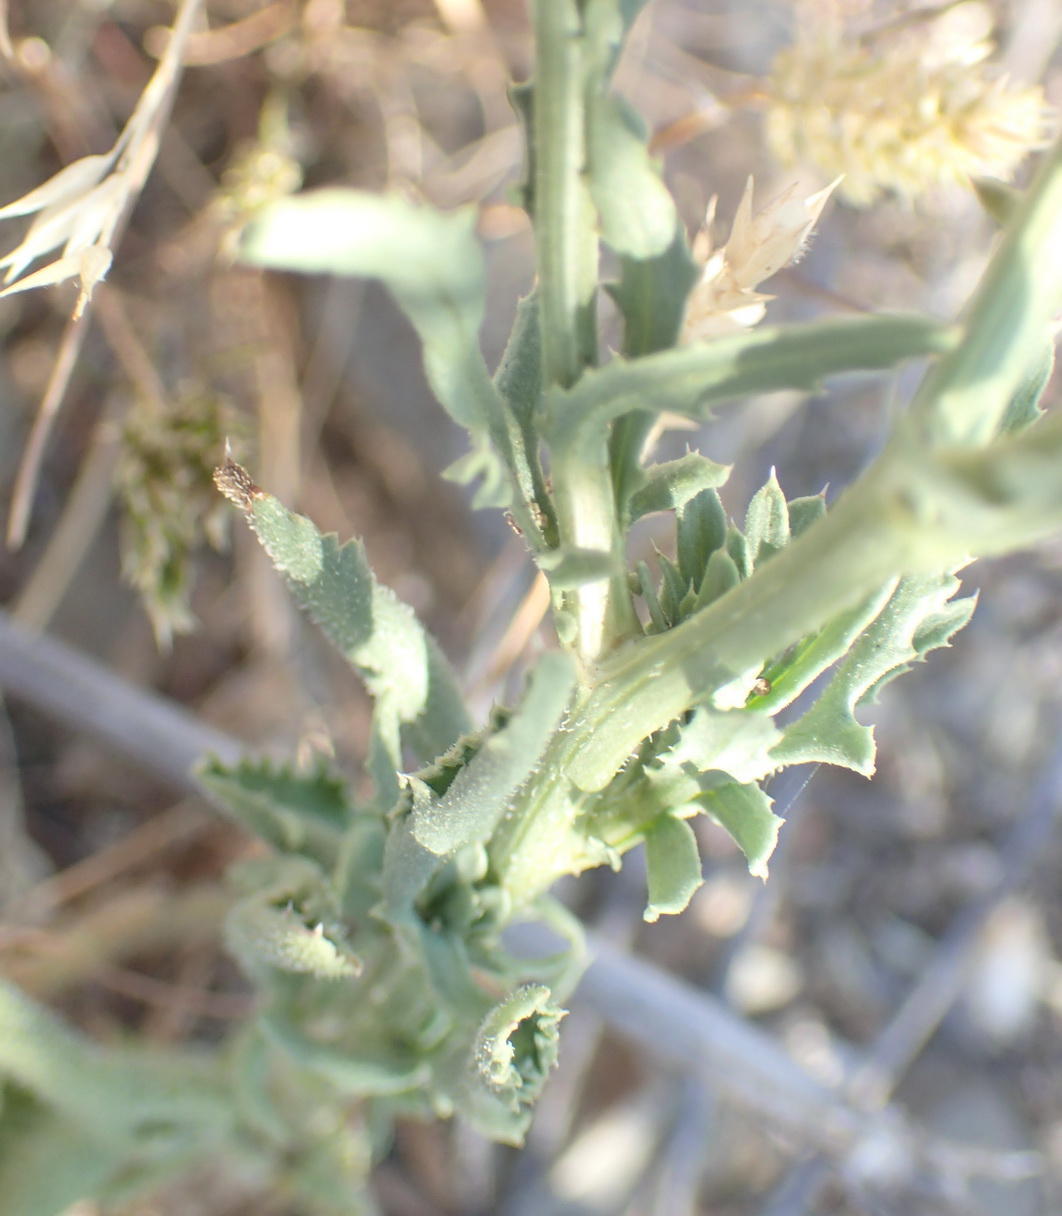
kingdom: Plantae
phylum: Tracheophyta
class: Magnoliopsida
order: Asterales
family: Asteraceae
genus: Mantisalca
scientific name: Mantisalca salmantica
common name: Dagger flower
